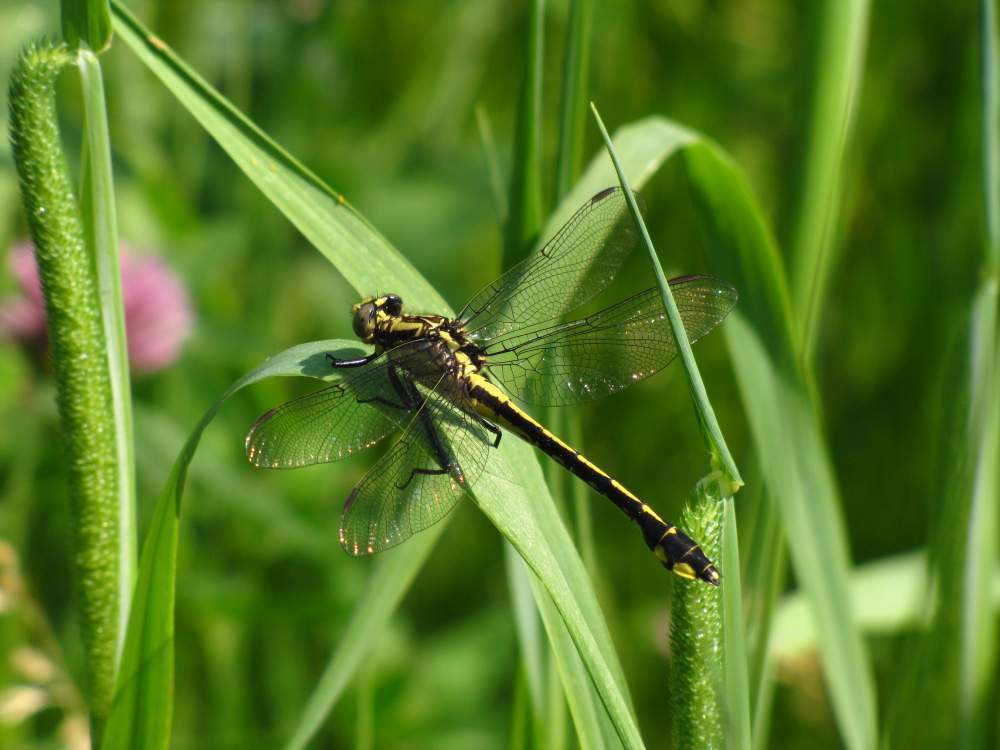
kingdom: Animalia
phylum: Arthropoda
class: Insecta
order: Odonata
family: Gomphidae
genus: Gomphurus
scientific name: Gomphurus fraternus
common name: Midland clubtail
